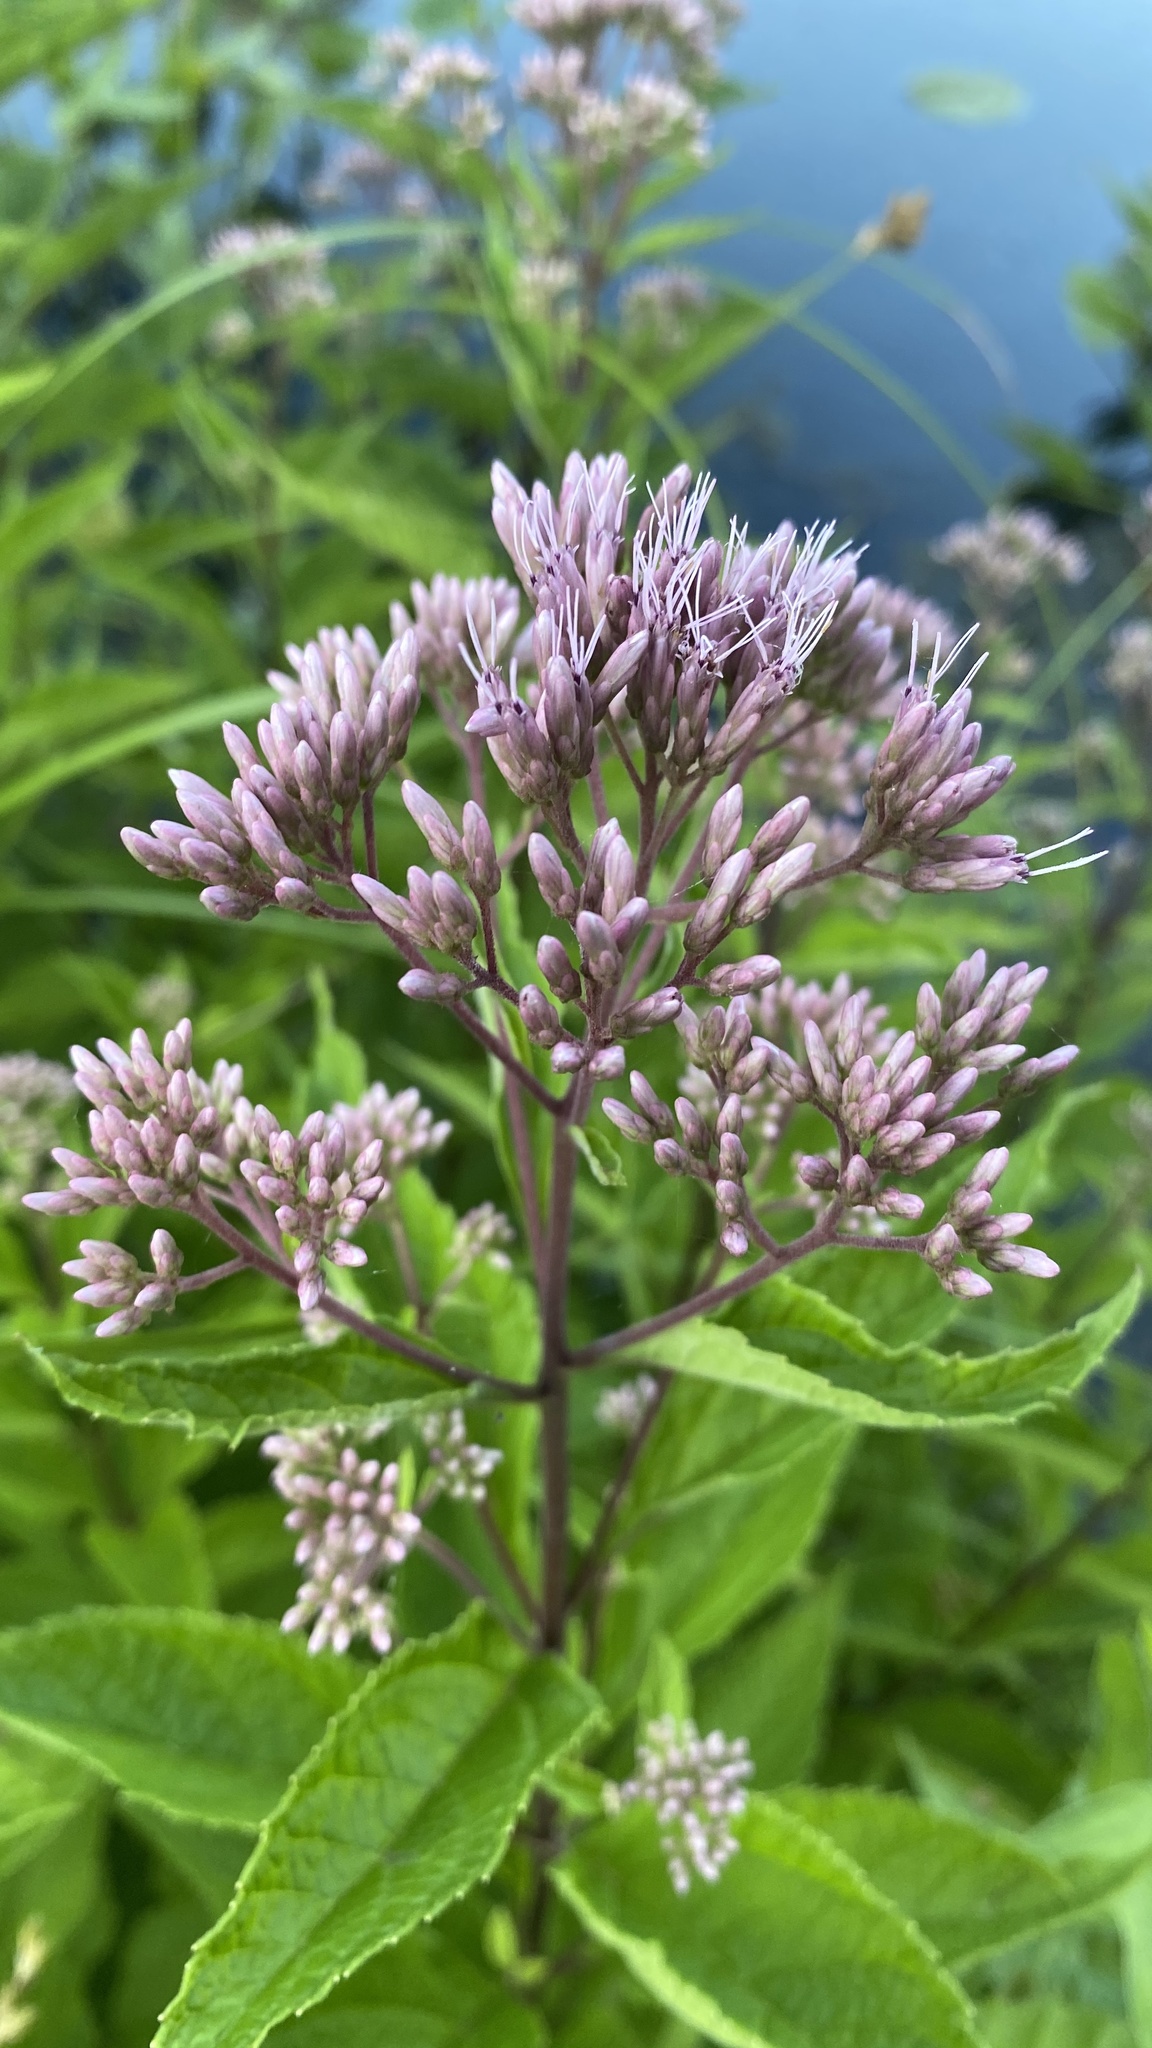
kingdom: Plantae
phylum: Tracheophyta
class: Magnoliopsida
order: Asterales
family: Asteraceae
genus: Eutrochium
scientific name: Eutrochium dubium
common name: Coastal plain joe pye weed
